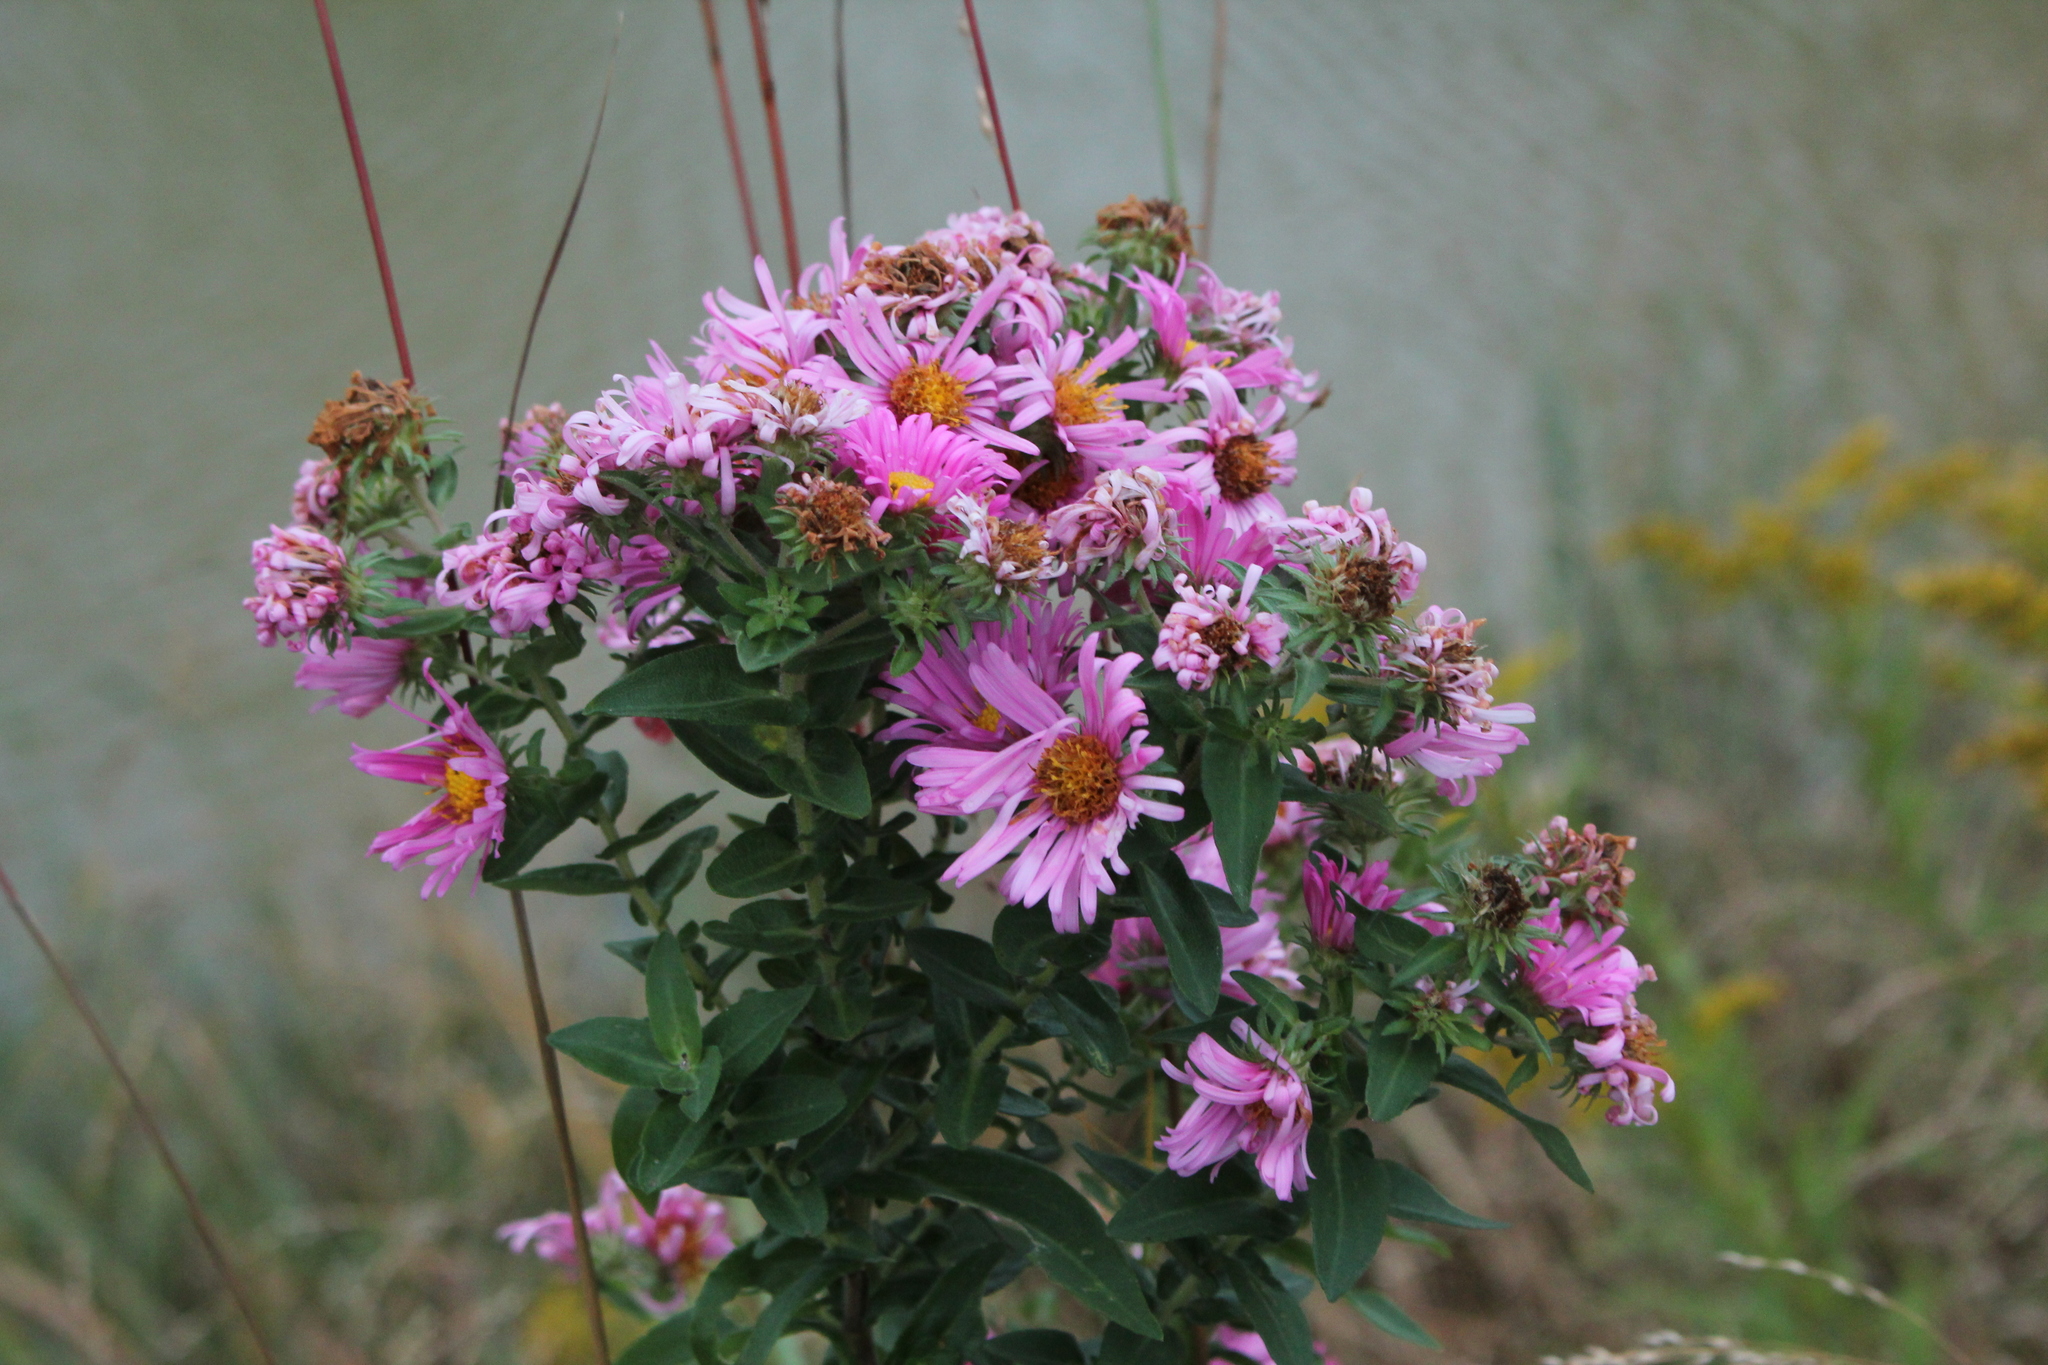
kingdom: Plantae
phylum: Tracheophyta
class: Magnoliopsida
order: Asterales
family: Asteraceae
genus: Symphyotrichum
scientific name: Symphyotrichum novae-angliae
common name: Michaelmas daisy
